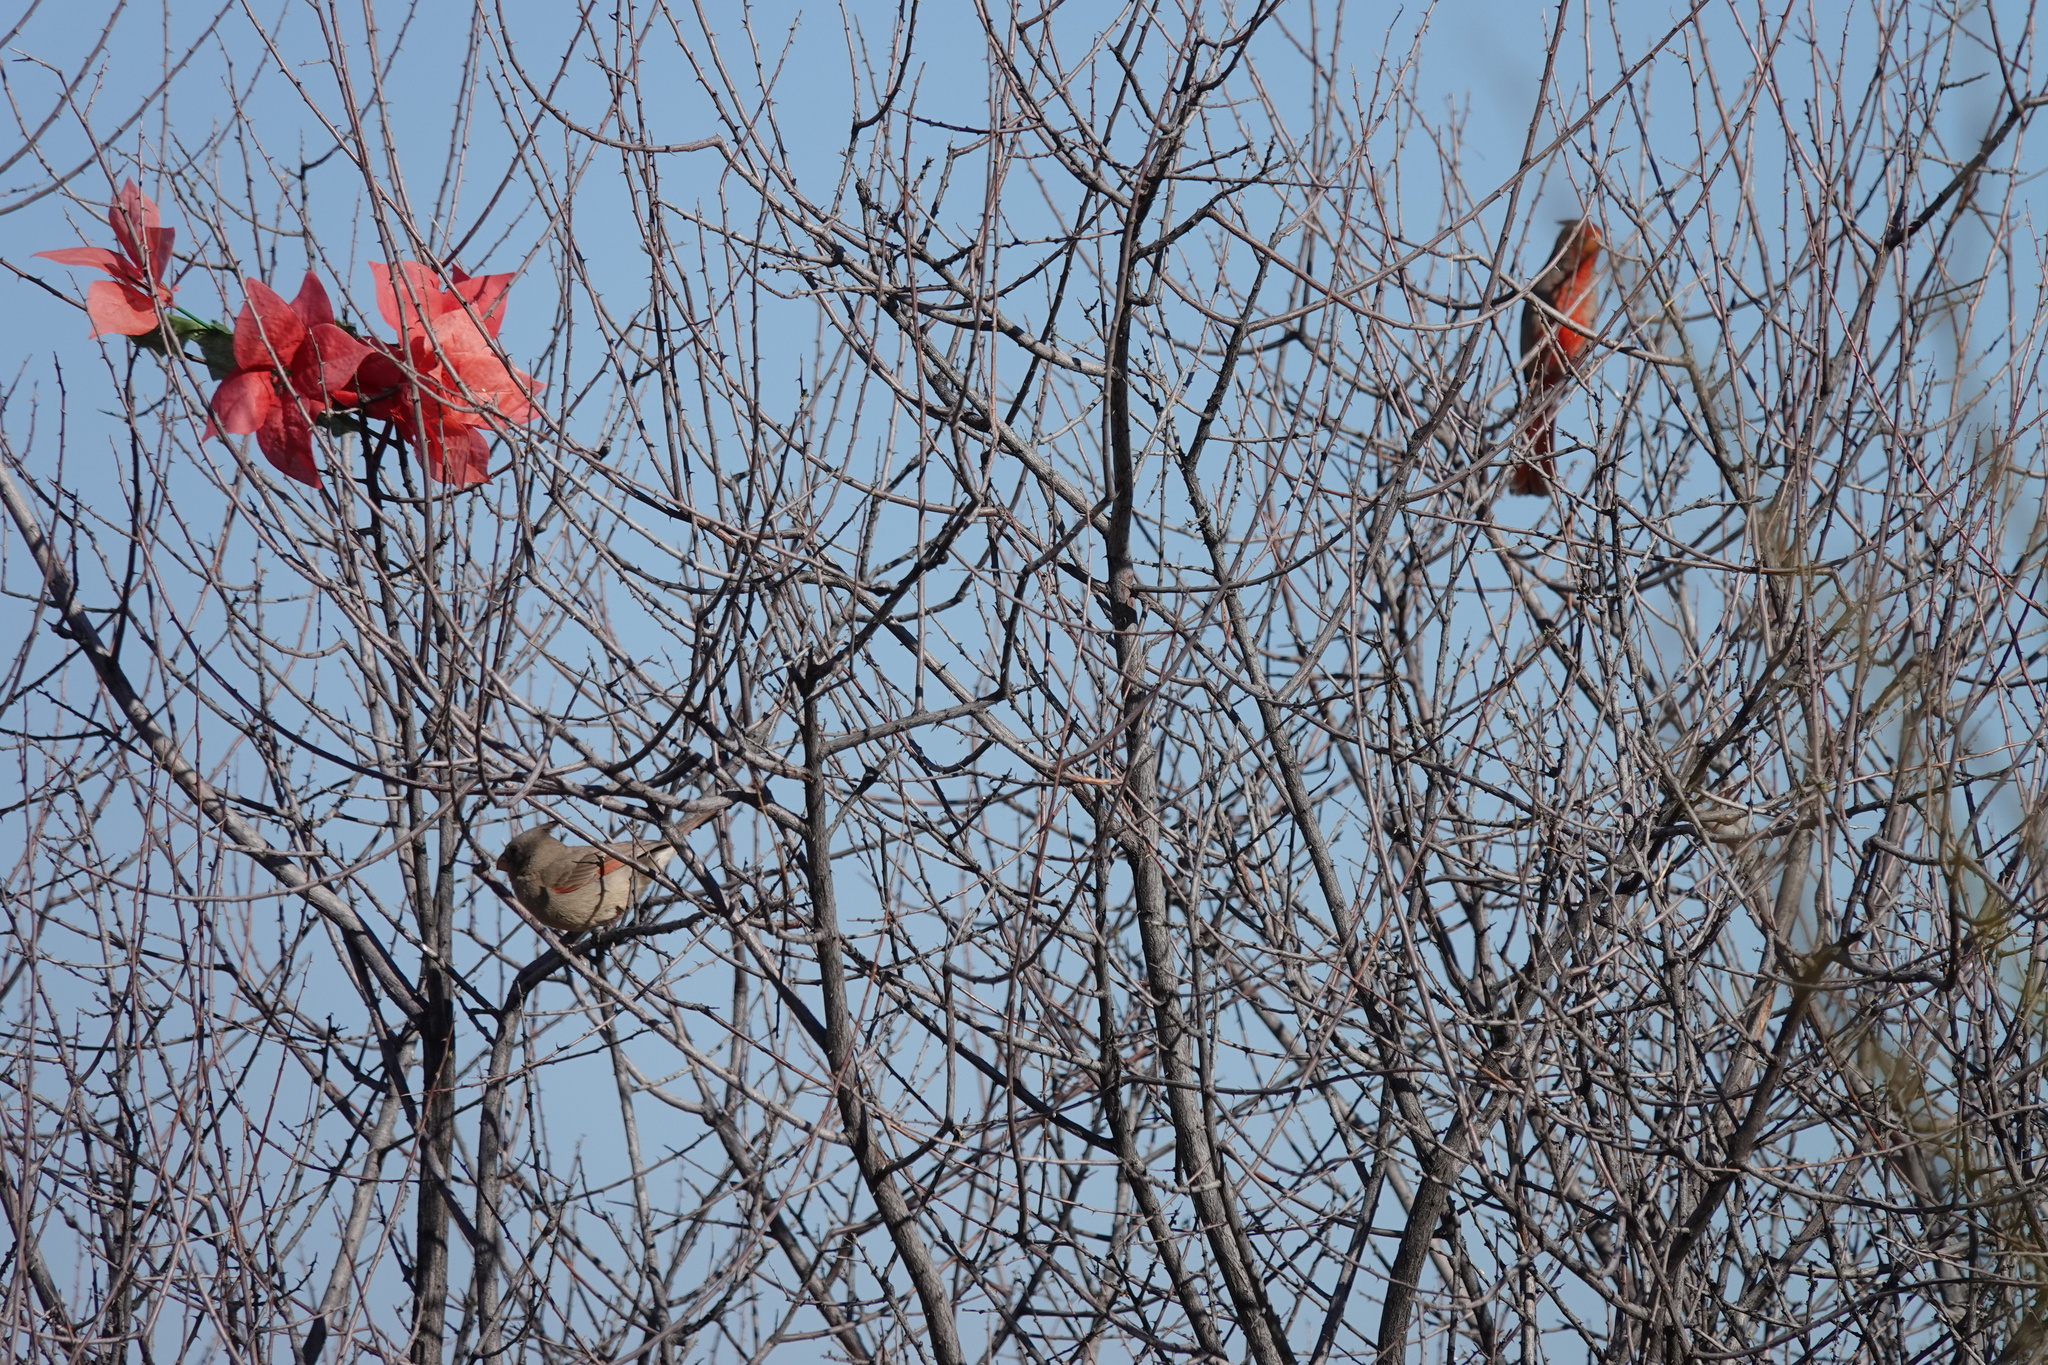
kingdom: Animalia
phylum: Chordata
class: Aves
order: Passeriformes
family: Cardinalidae
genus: Cardinalis
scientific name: Cardinalis sinuatus
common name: Pyrrhuloxia
